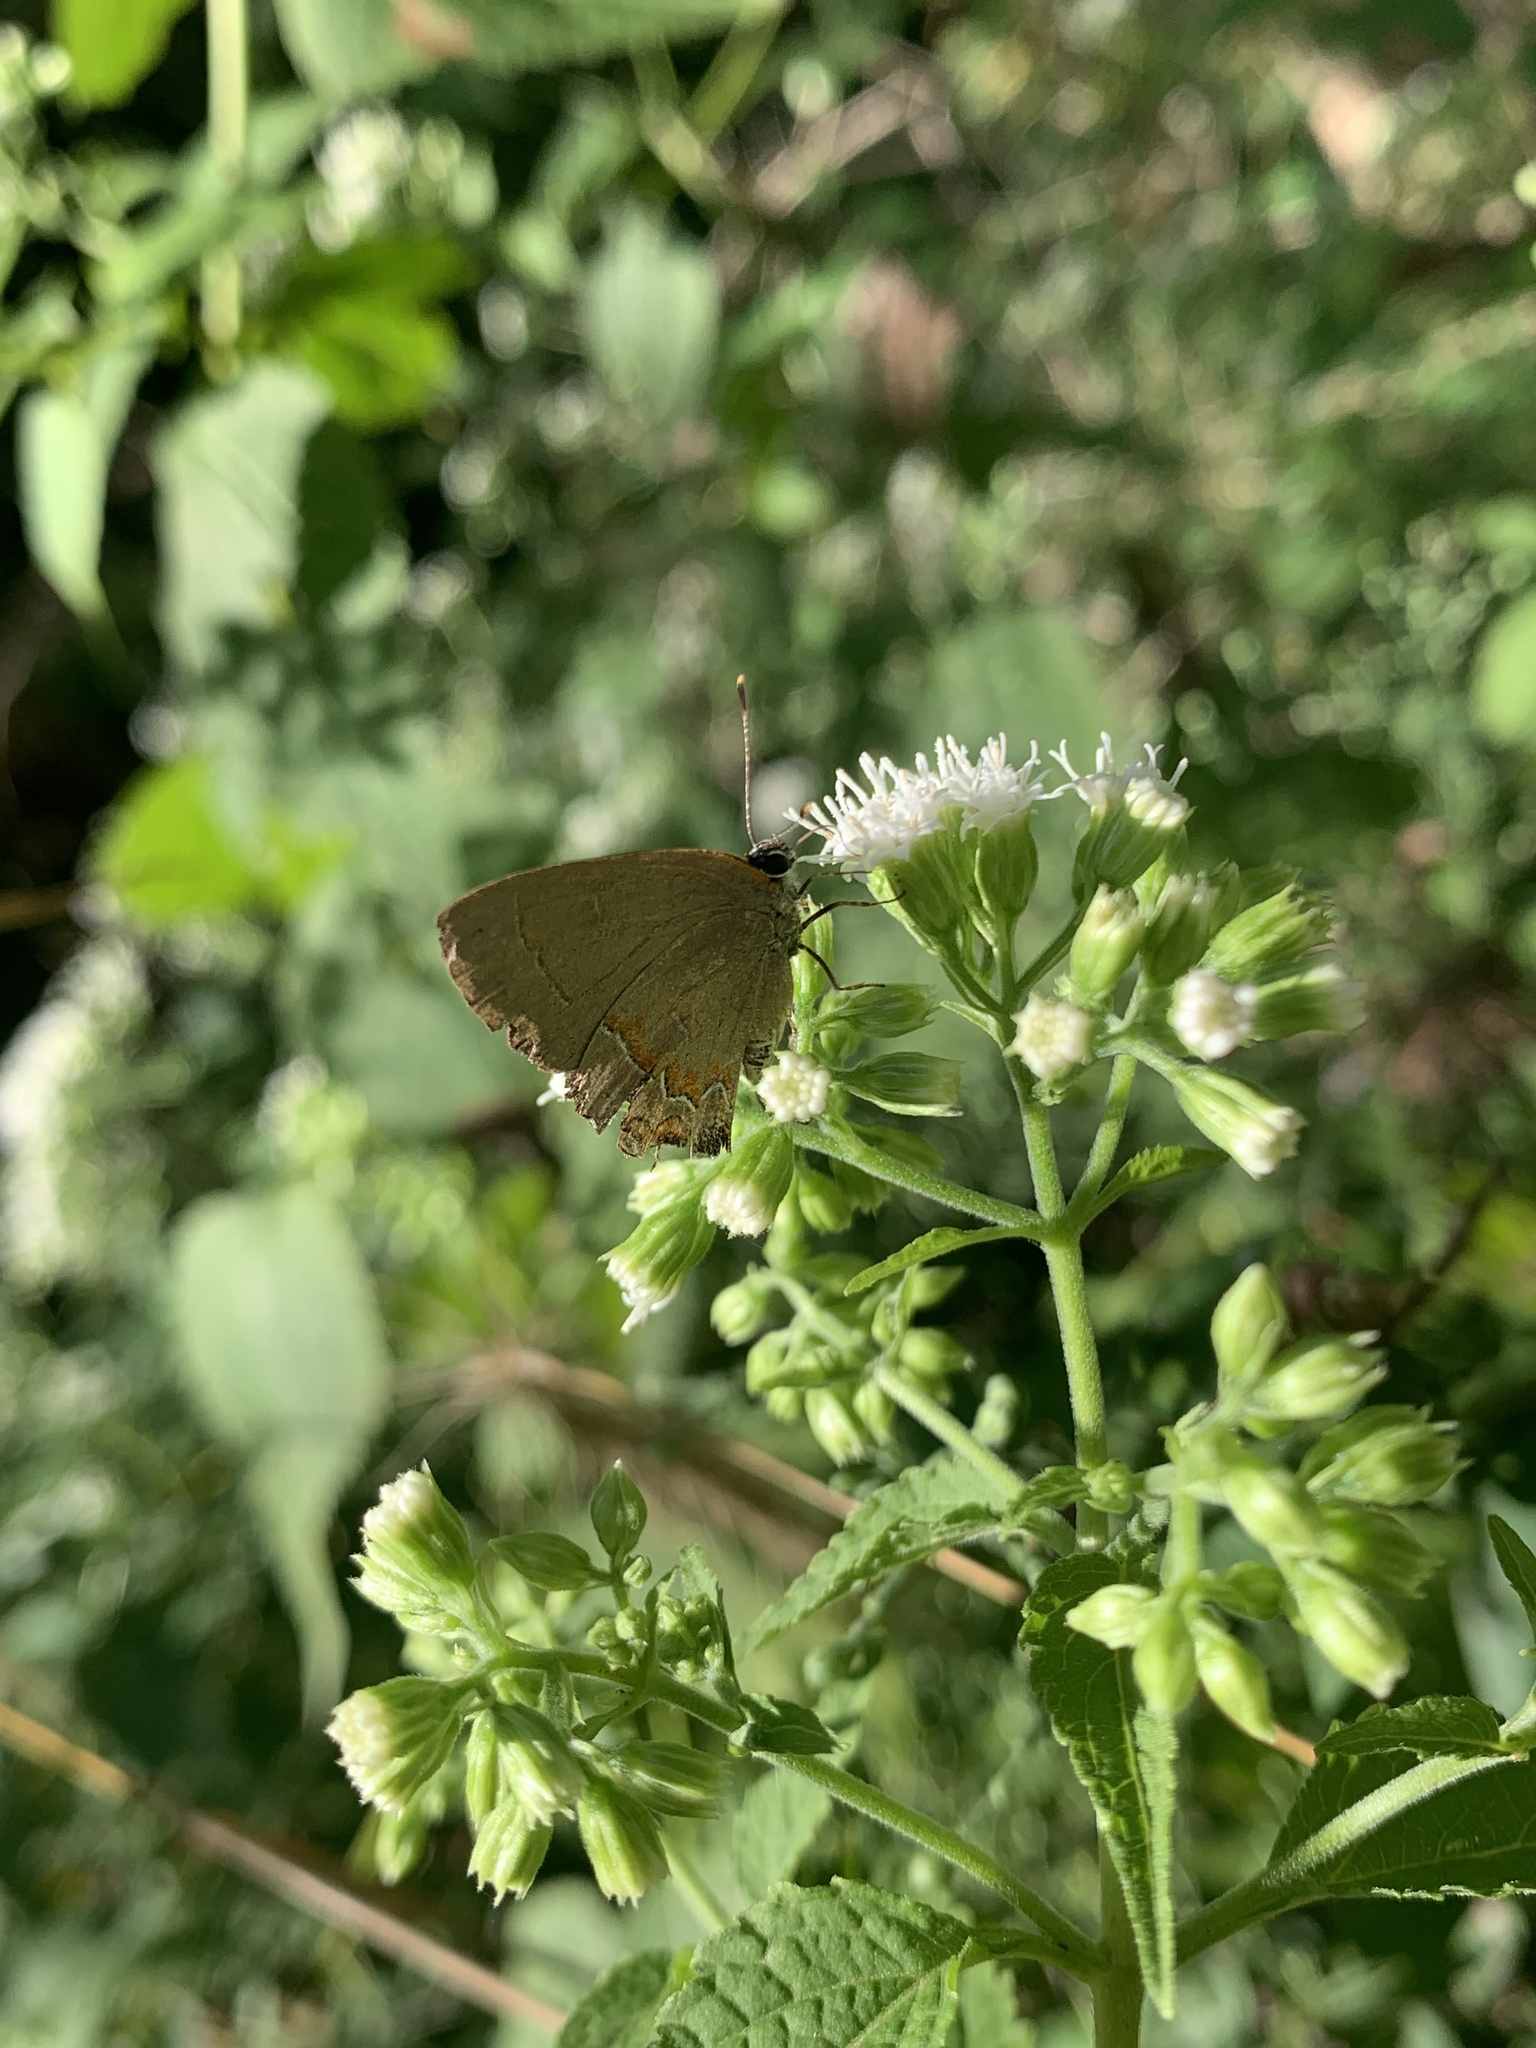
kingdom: Animalia
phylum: Arthropoda
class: Insecta
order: Lepidoptera
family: Lycaenidae
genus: Calycopis
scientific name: Calycopis cecrops
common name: Red-banded hairstreak
